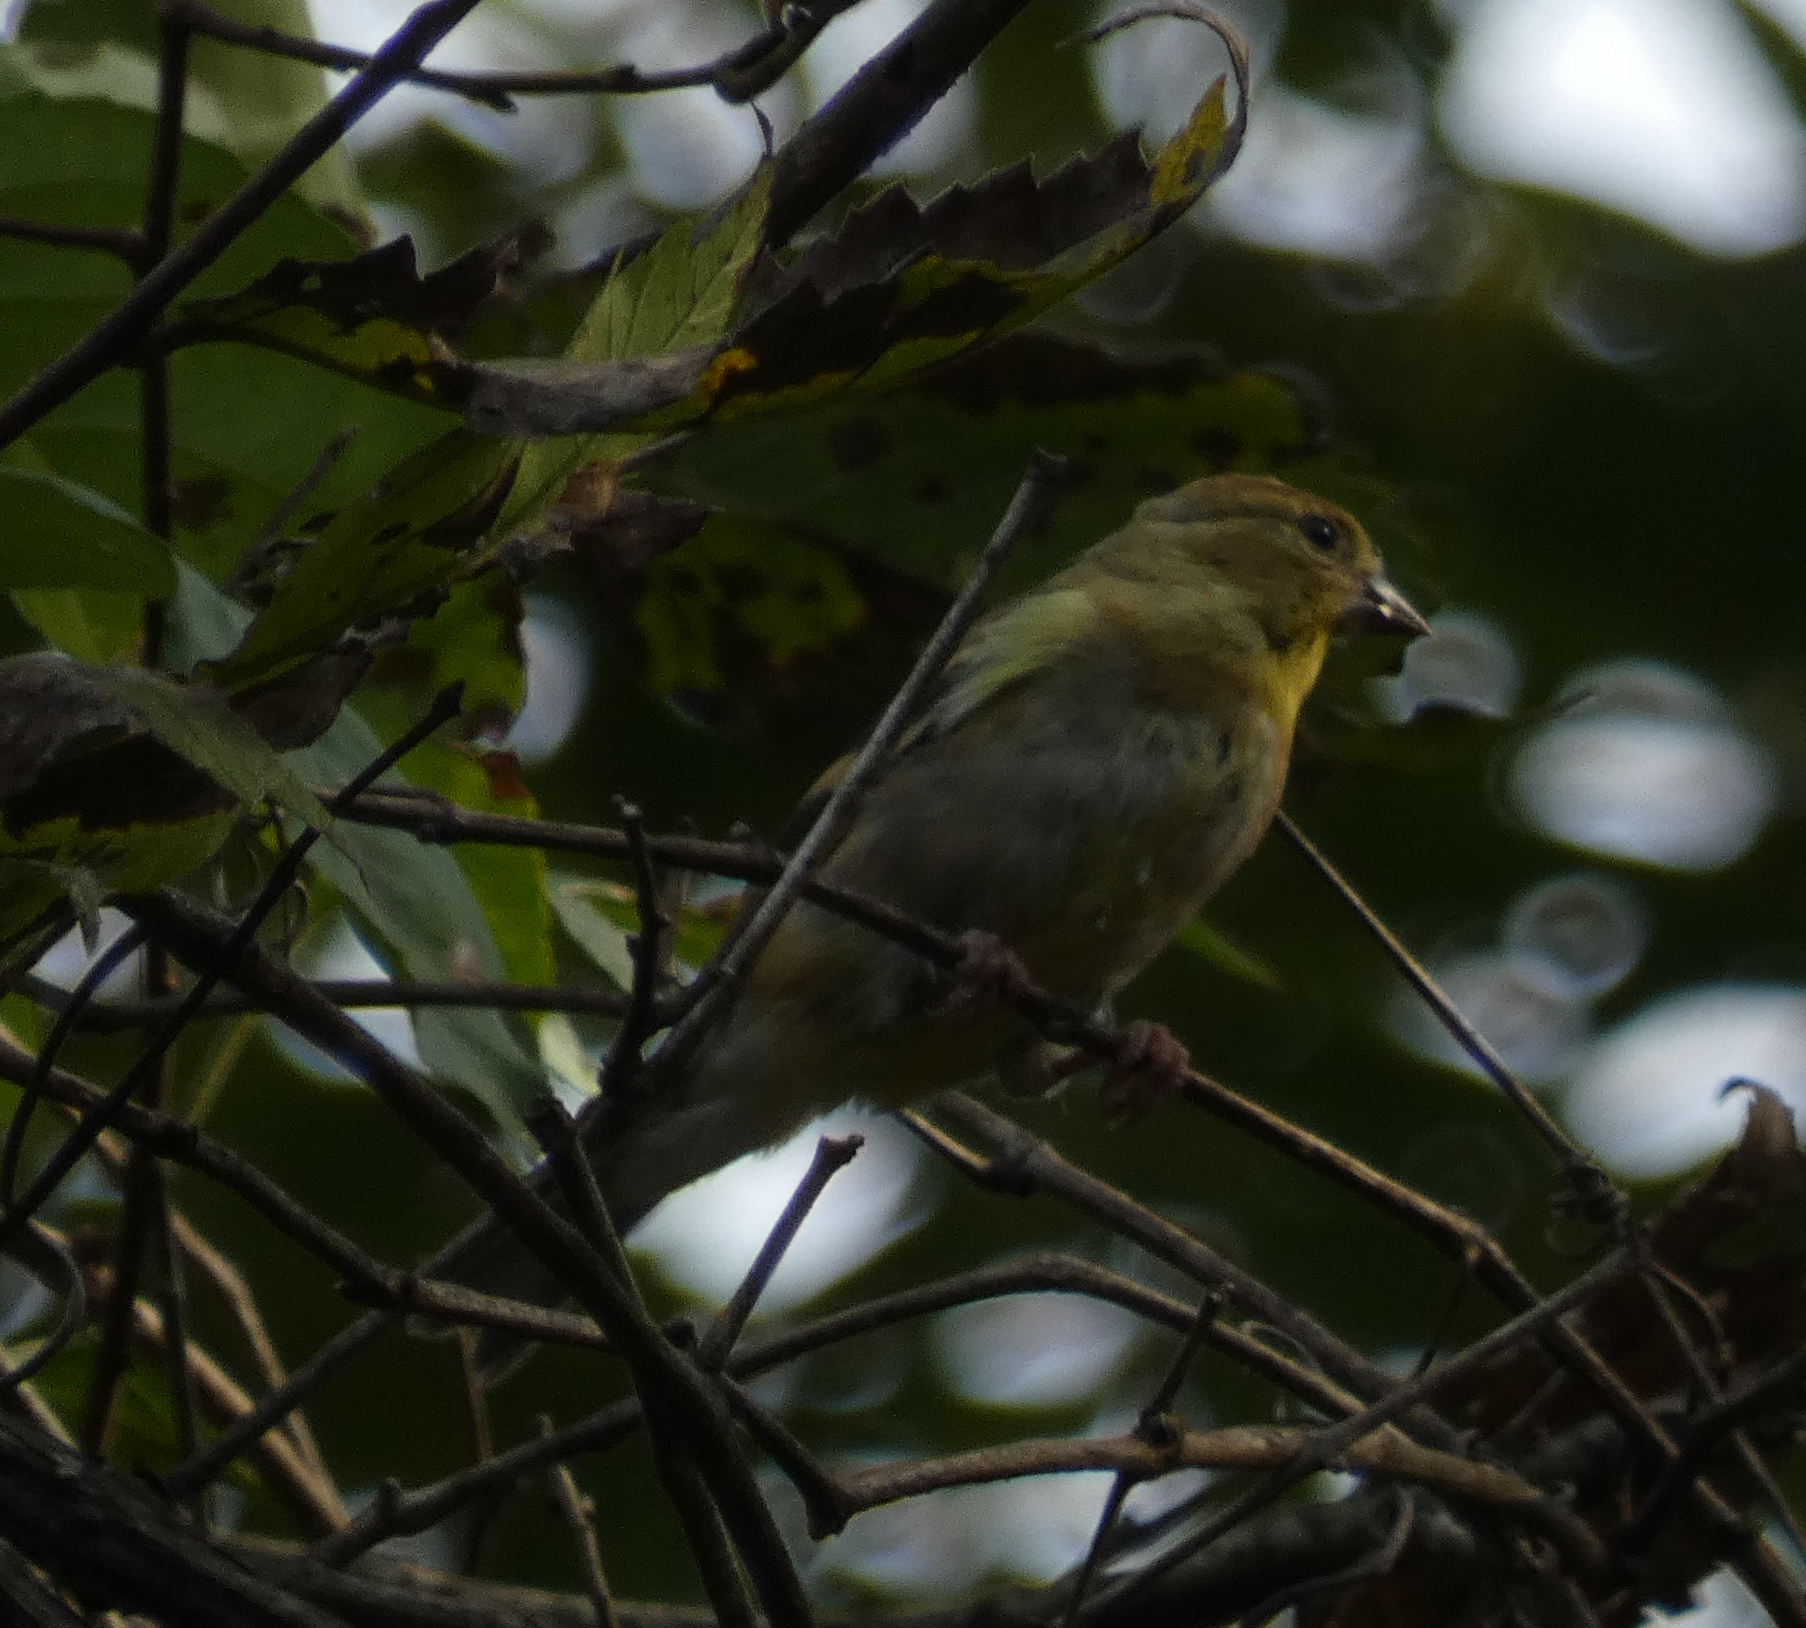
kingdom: Animalia
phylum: Chordata
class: Aves
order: Passeriformes
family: Fringillidae
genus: Spinus
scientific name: Spinus tristis
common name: American goldfinch
